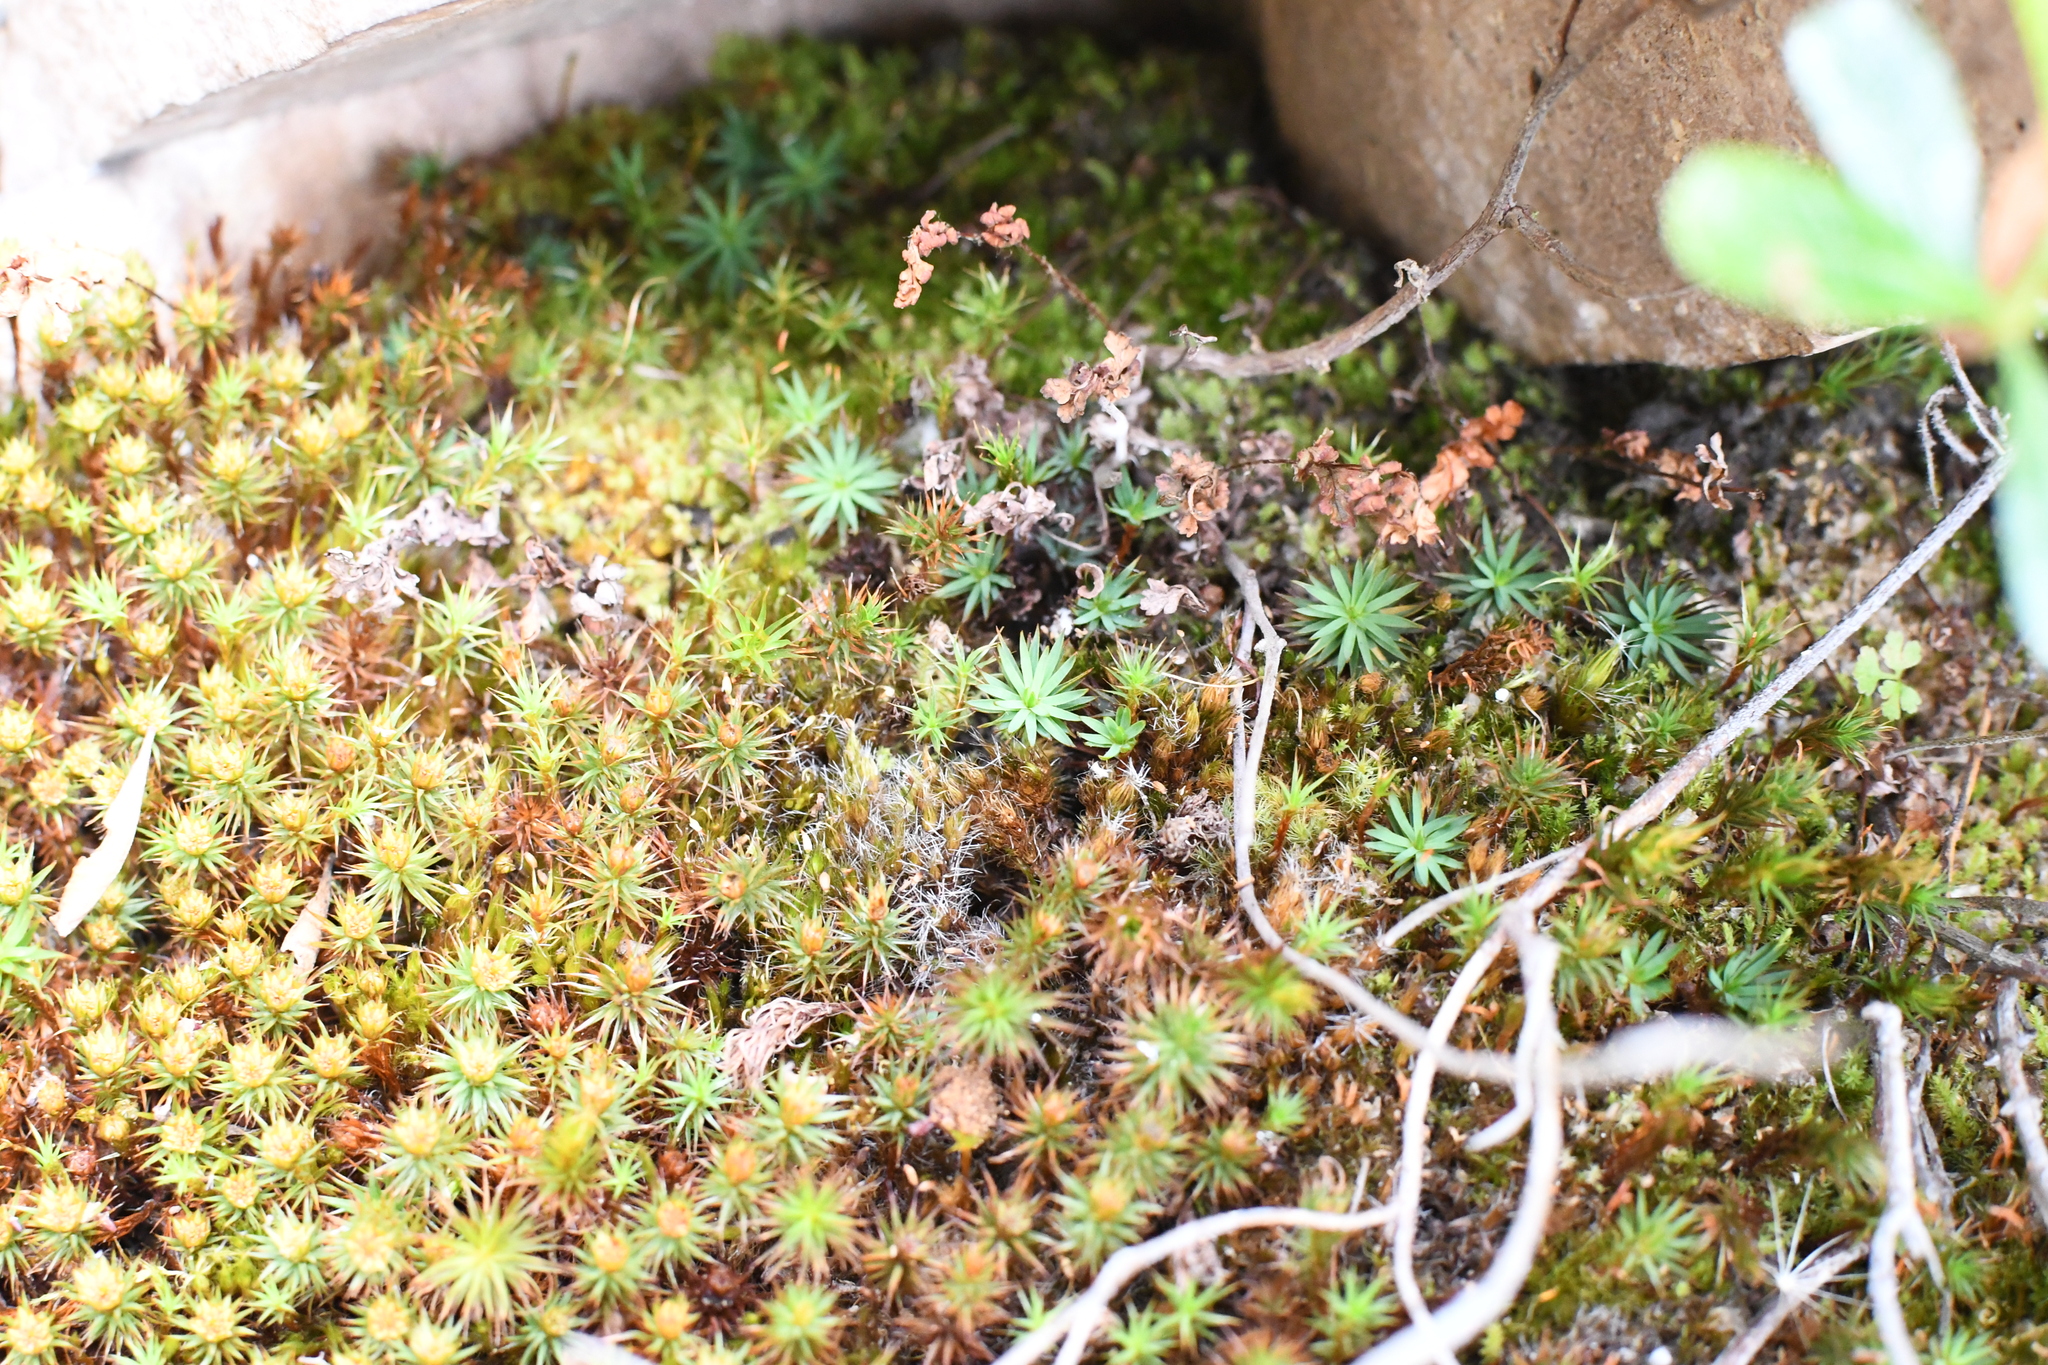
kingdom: Plantae
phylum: Bryophyta
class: Polytrichopsida
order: Polytrichales
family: Polytrichaceae
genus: Dawsonia
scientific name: Dawsonia longiseta
